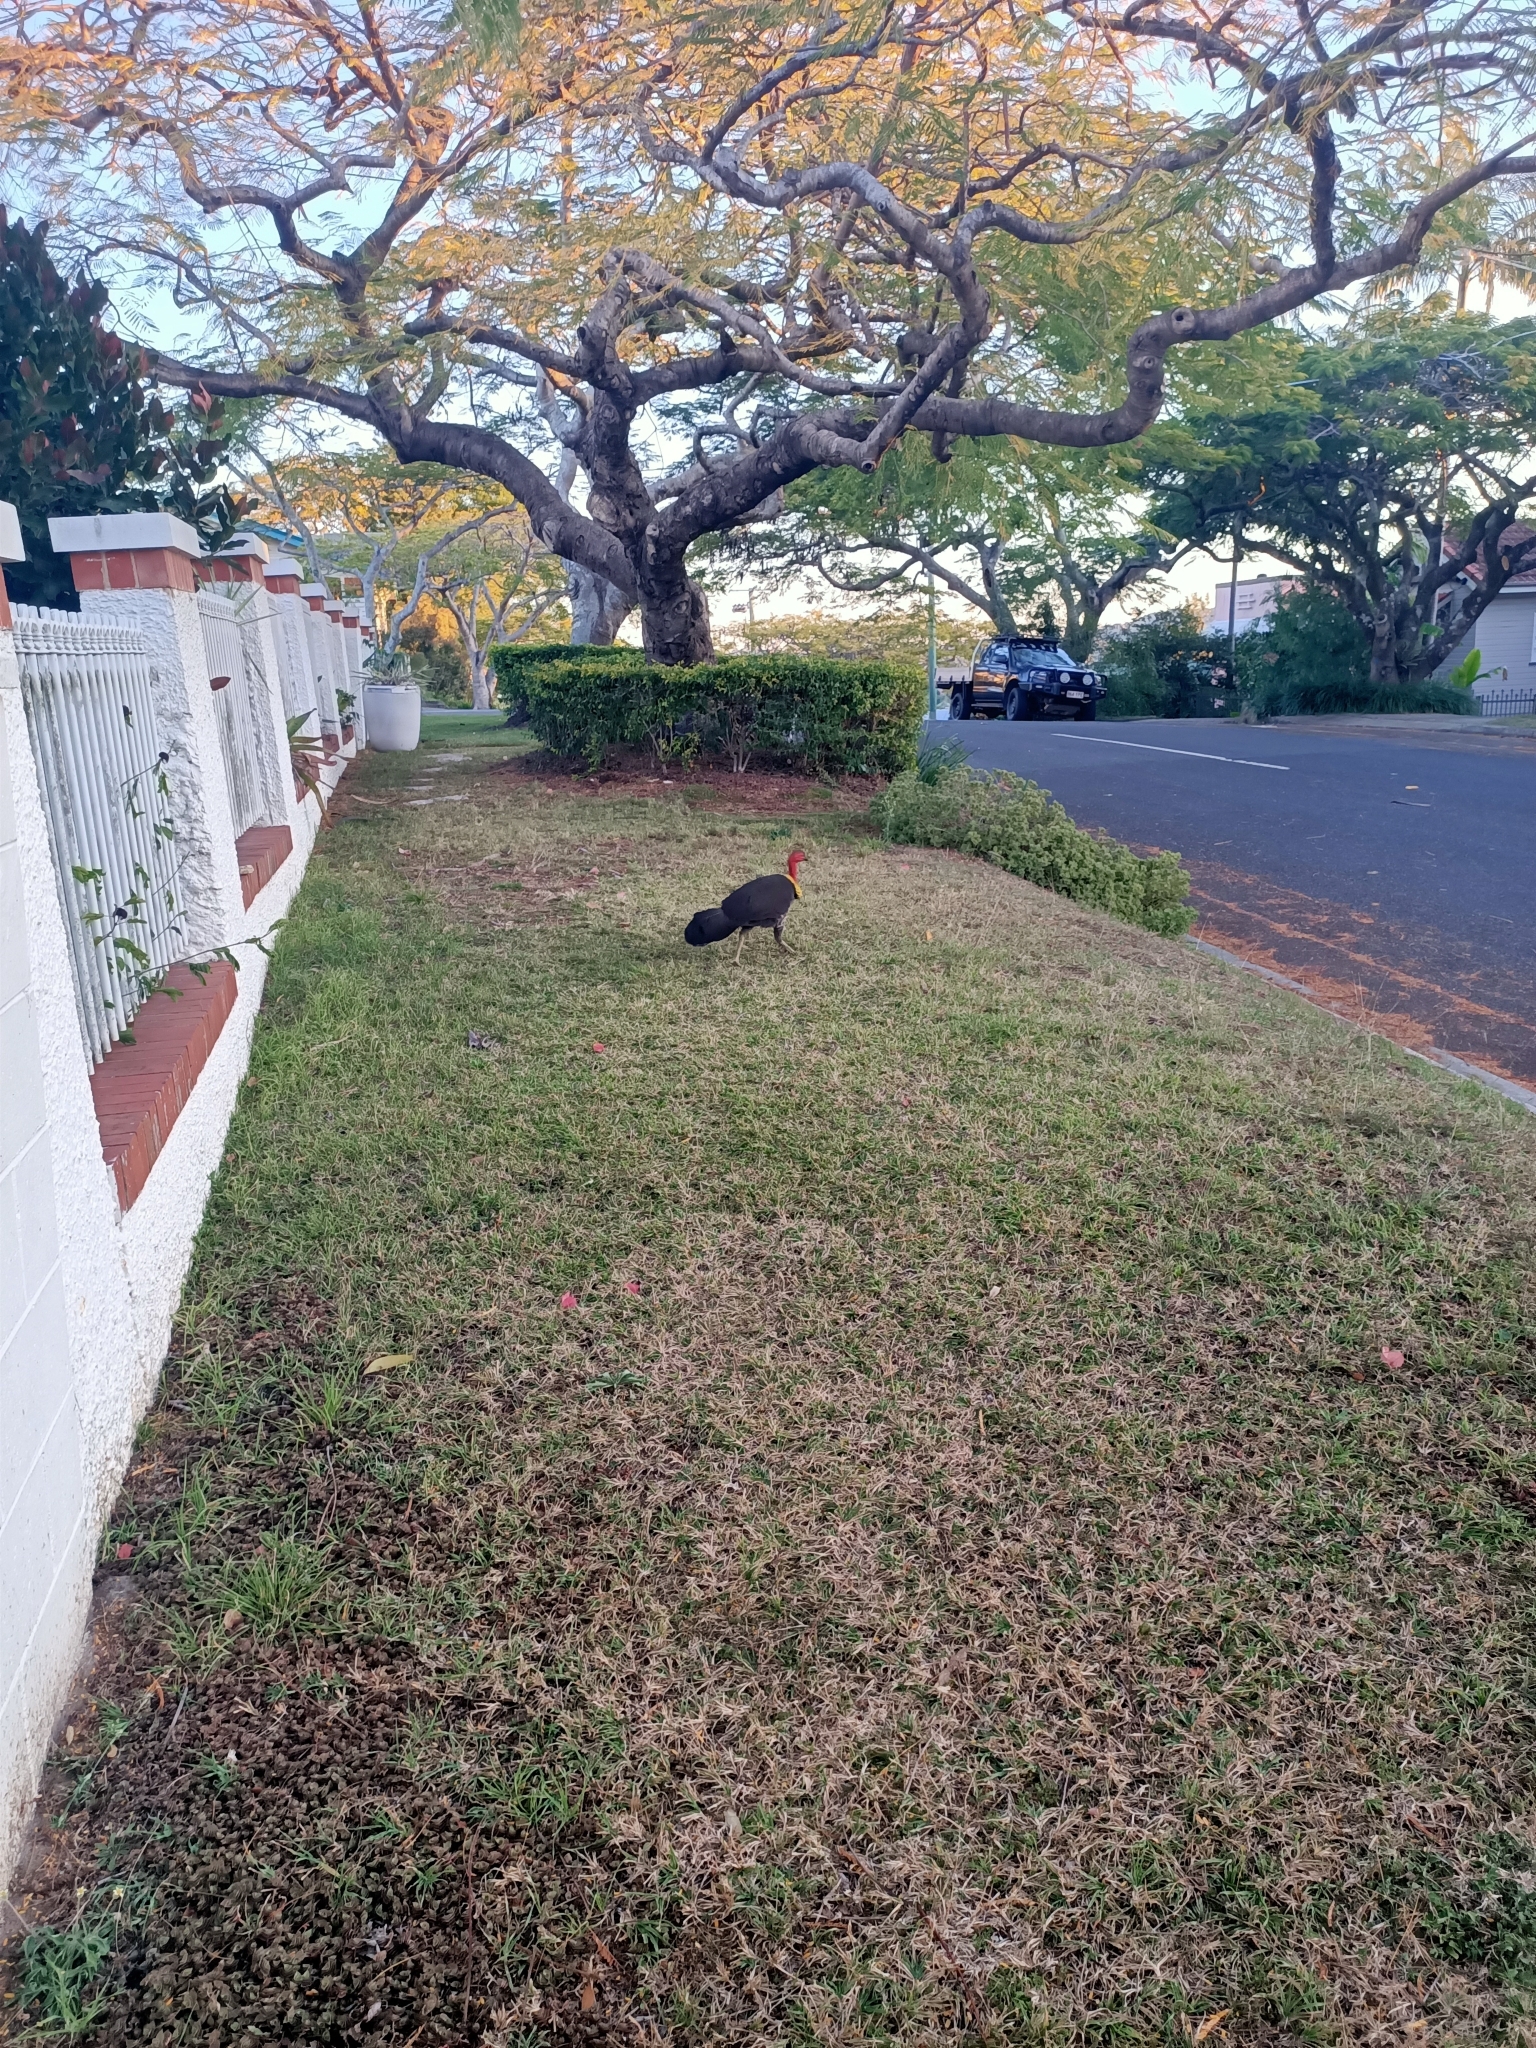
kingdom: Animalia
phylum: Chordata
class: Aves
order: Galliformes
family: Megapodiidae
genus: Alectura
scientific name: Alectura lathami
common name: Australian brushturkey
